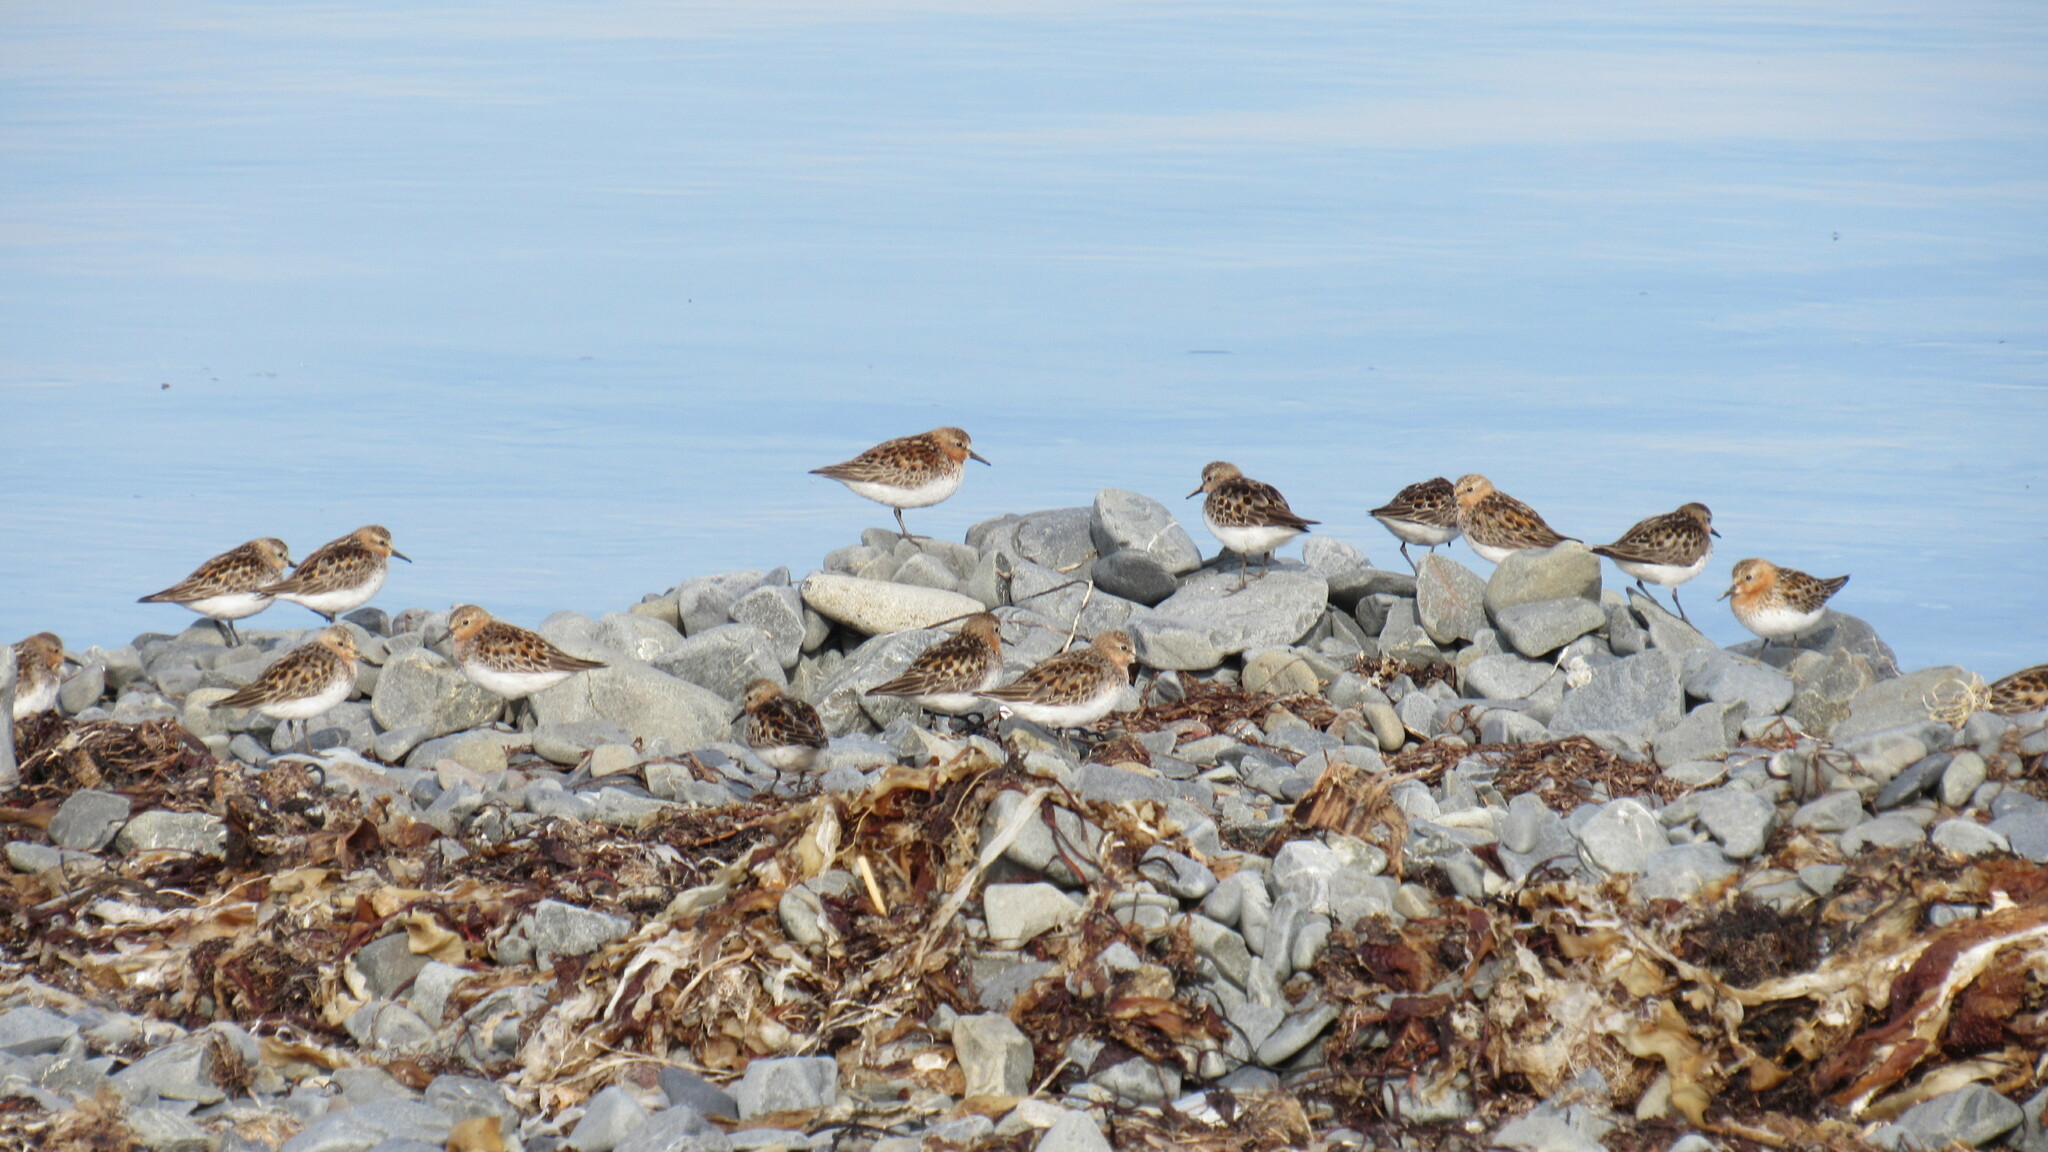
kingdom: Animalia
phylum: Chordata
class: Aves
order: Charadriiformes
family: Scolopacidae
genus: Calidris
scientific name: Calidris ruficollis
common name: Red-necked stint
